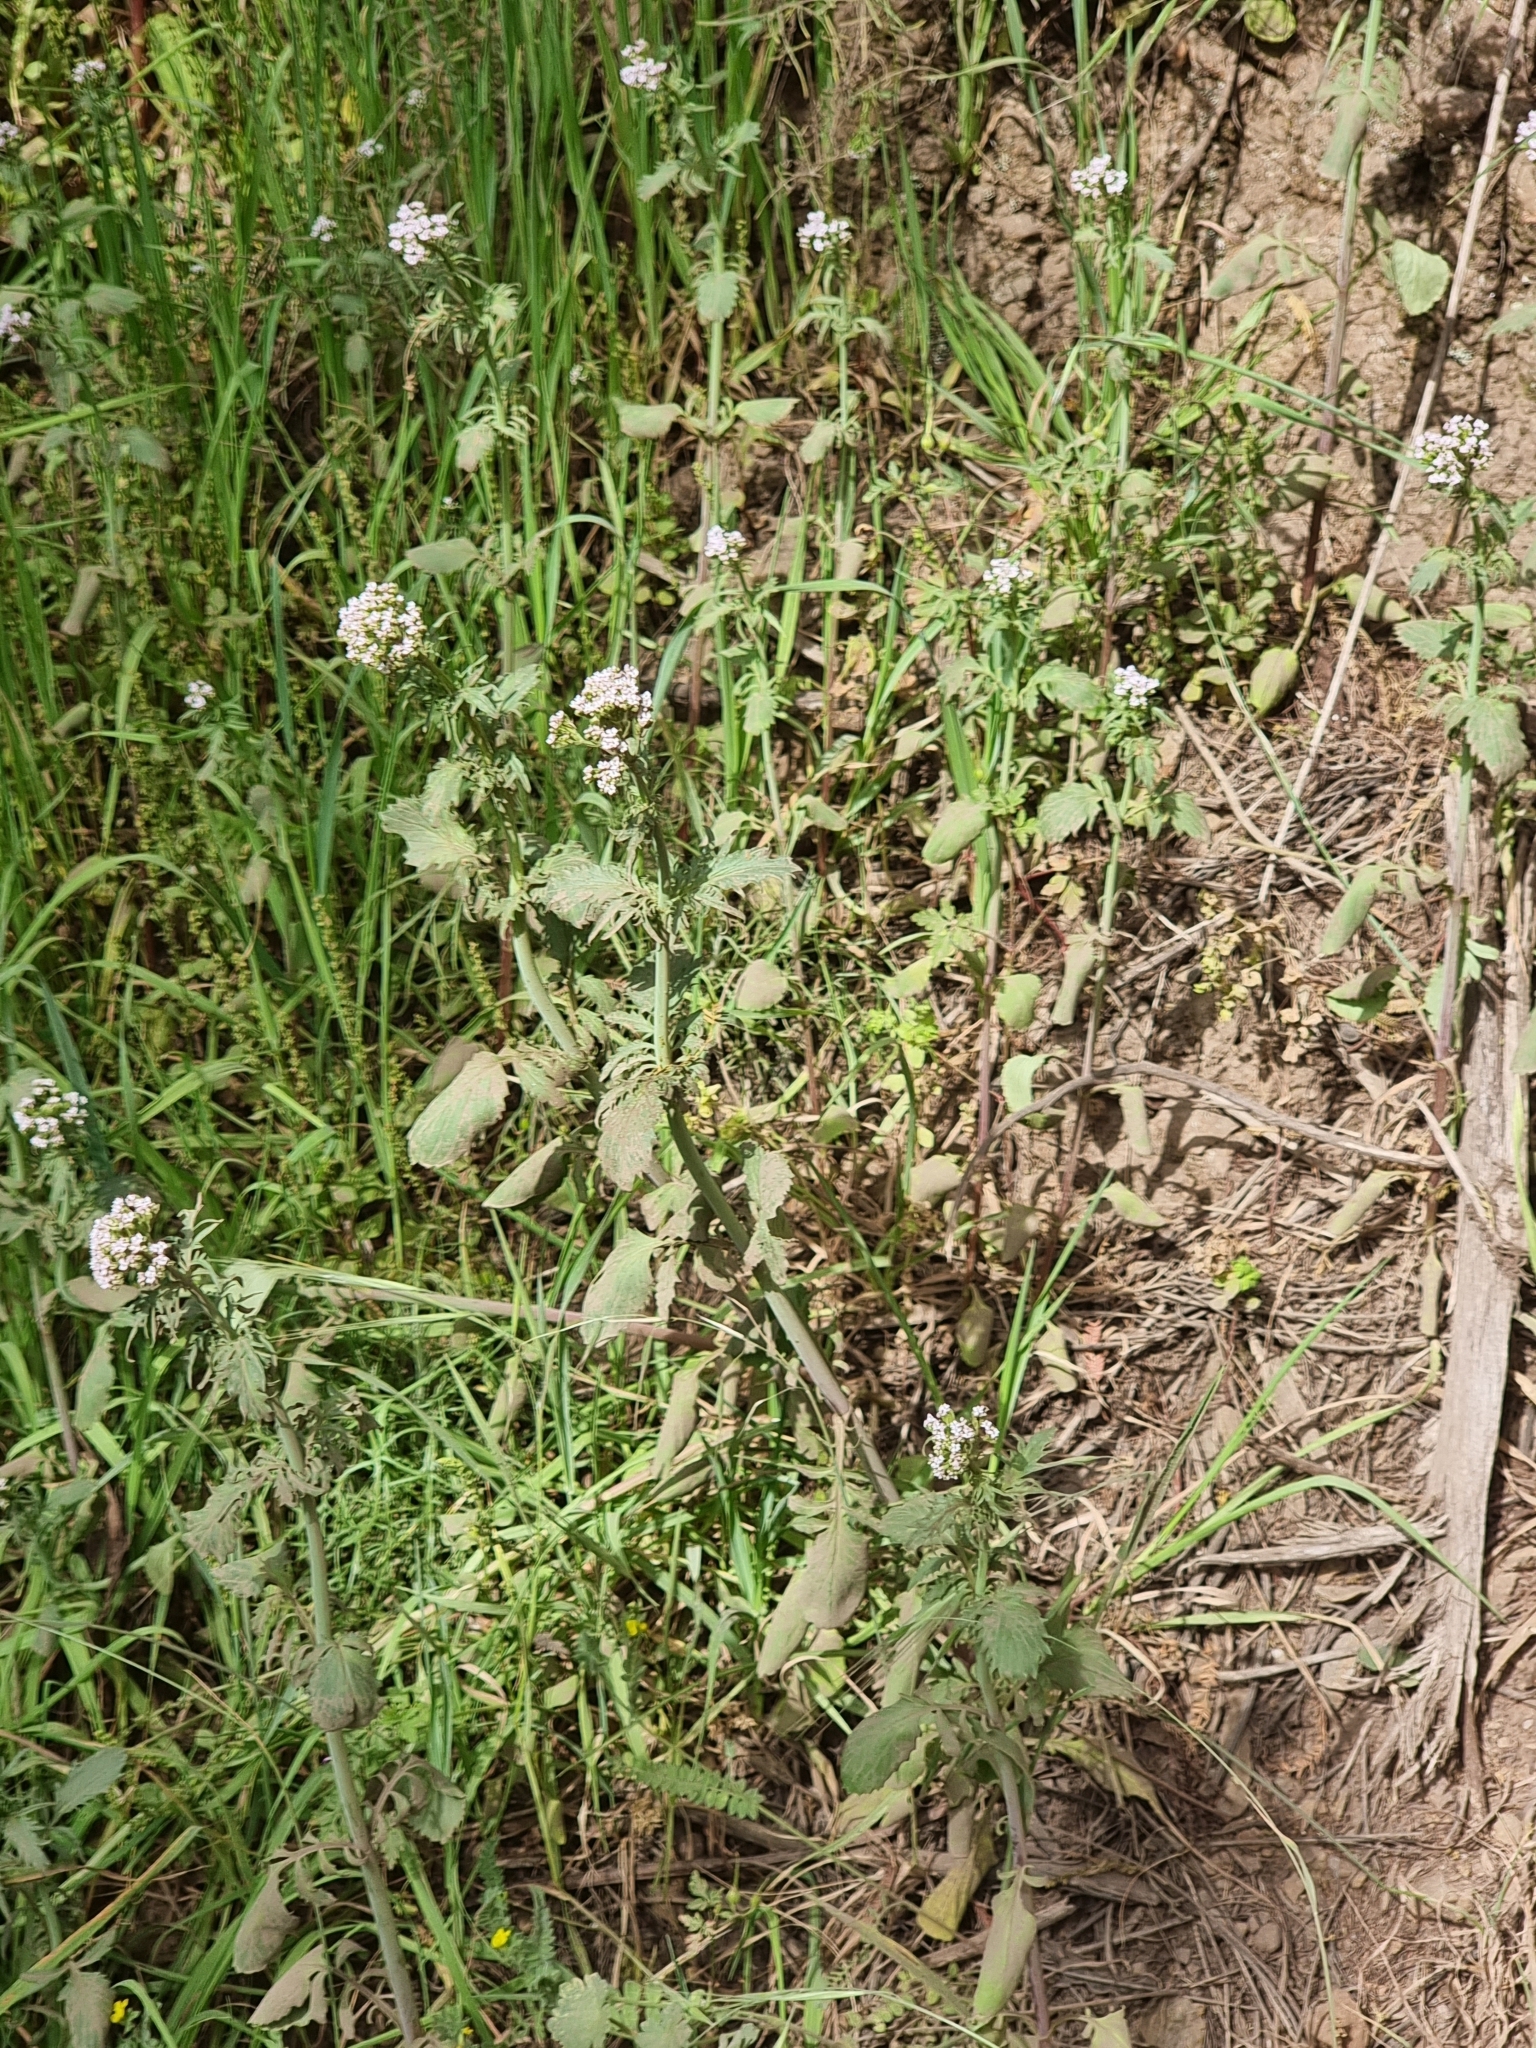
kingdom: Plantae
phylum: Tracheophyta
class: Magnoliopsida
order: Dipsacales
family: Caprifoliaceae
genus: Centranthus
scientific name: Centranthus calcitrapae
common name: Annual valerian
